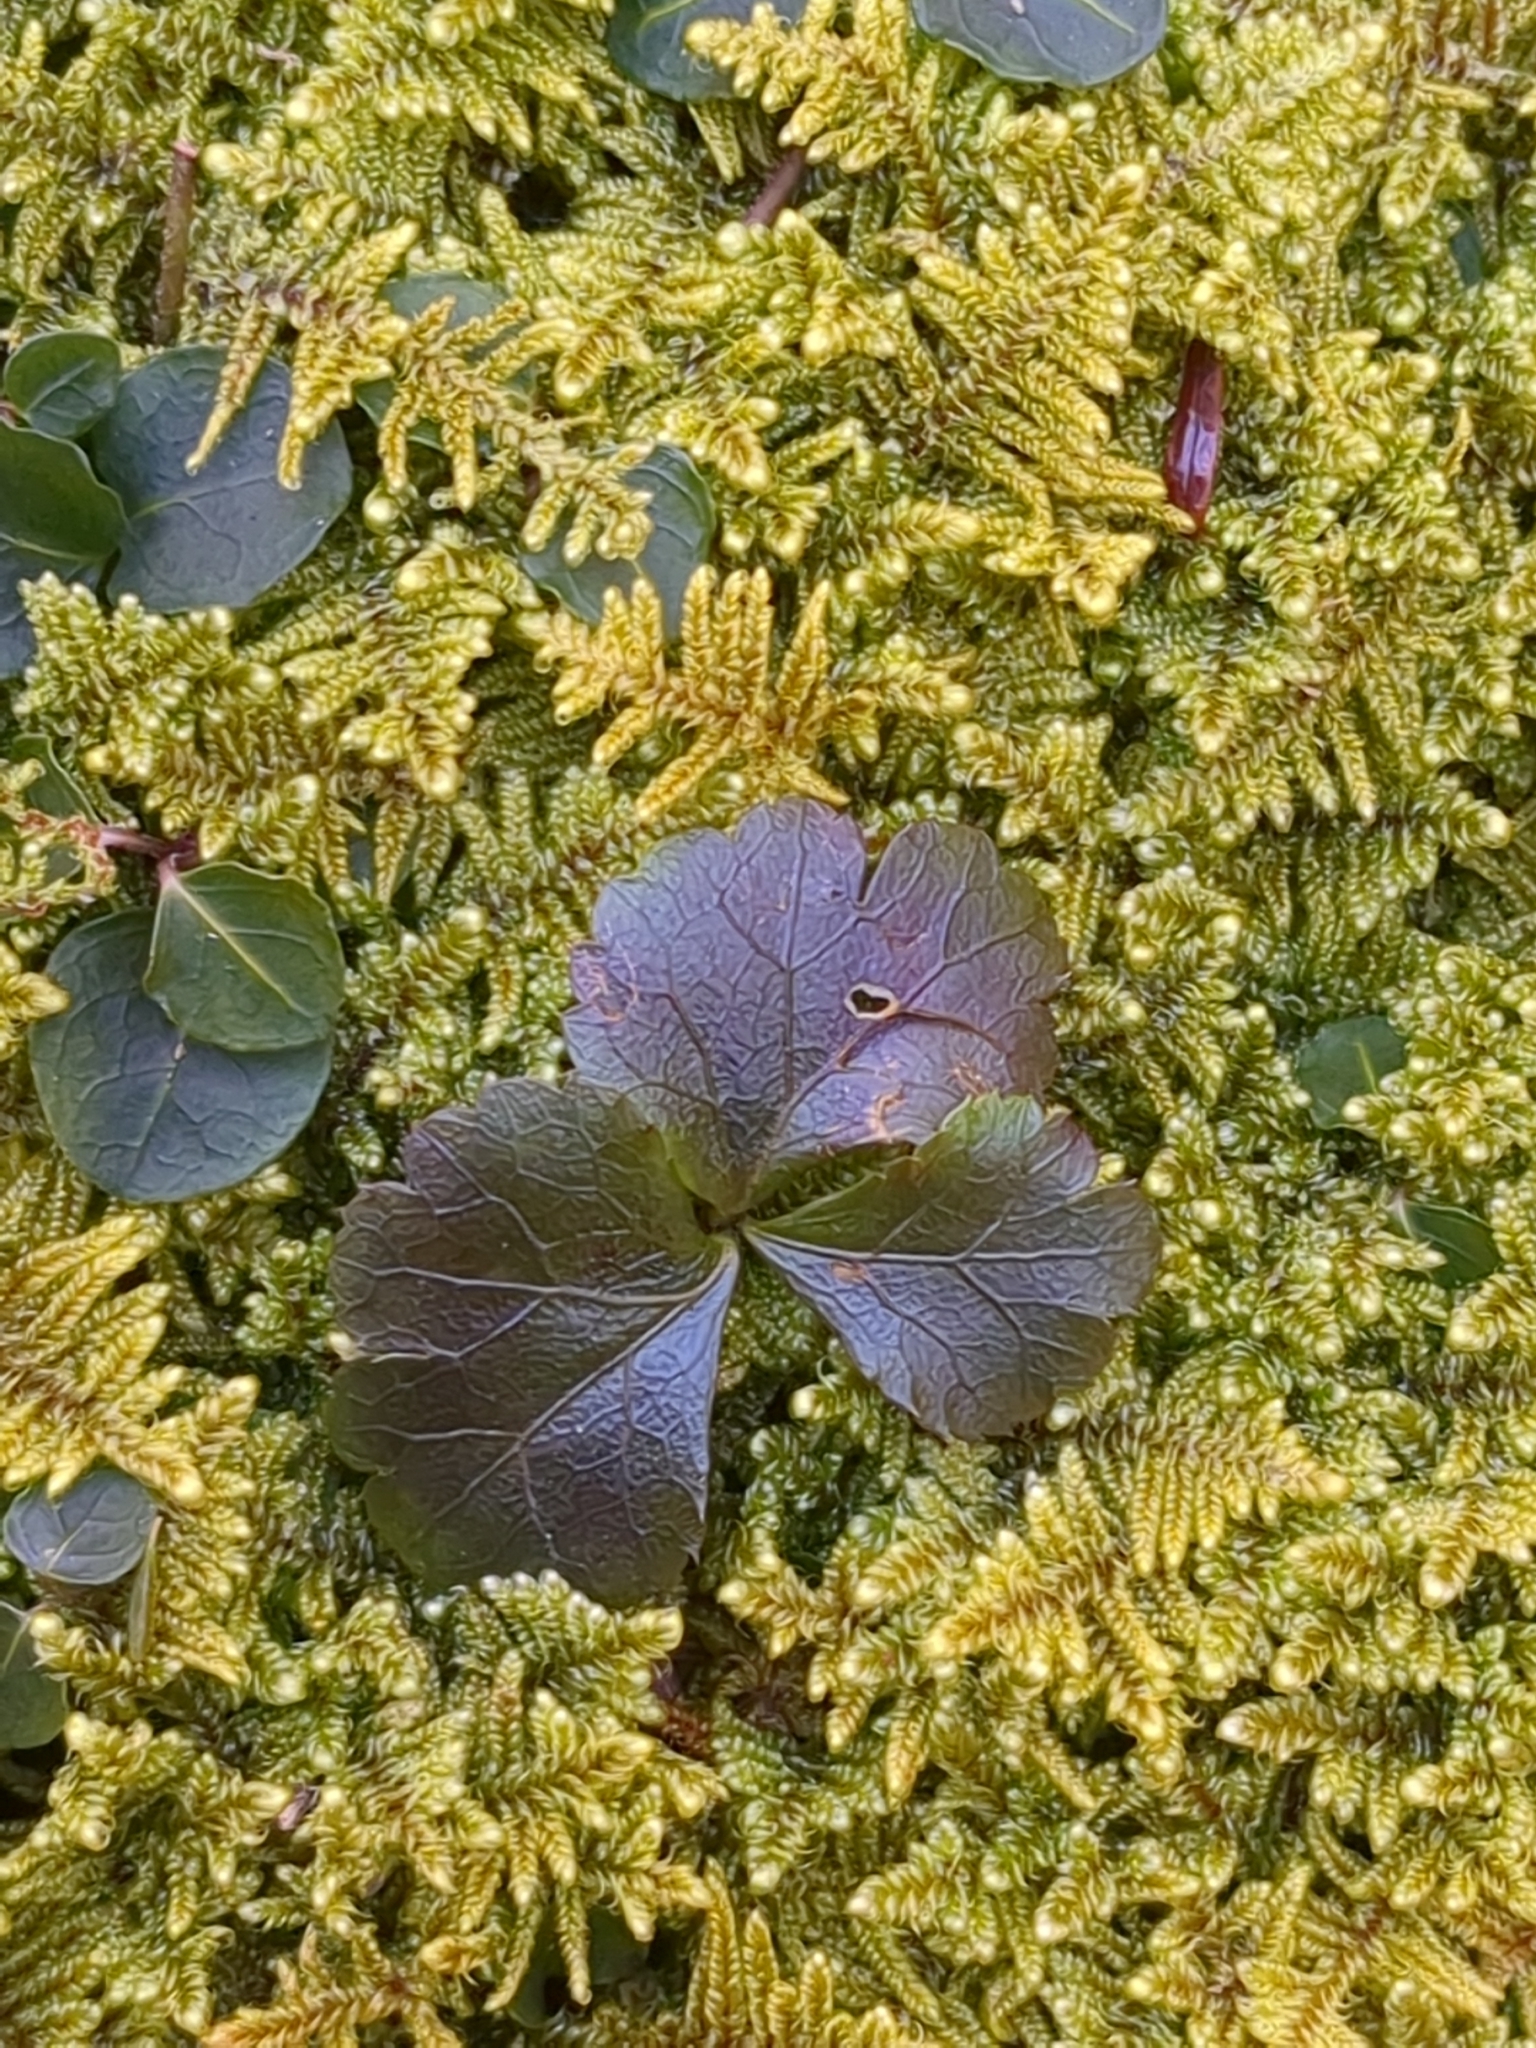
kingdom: Plantae
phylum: Tracheophyta
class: Magnoliopsida
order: Ranunculales
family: Ranunculaceae
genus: Coptis
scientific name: Coptis trifolia
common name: Canker-root
